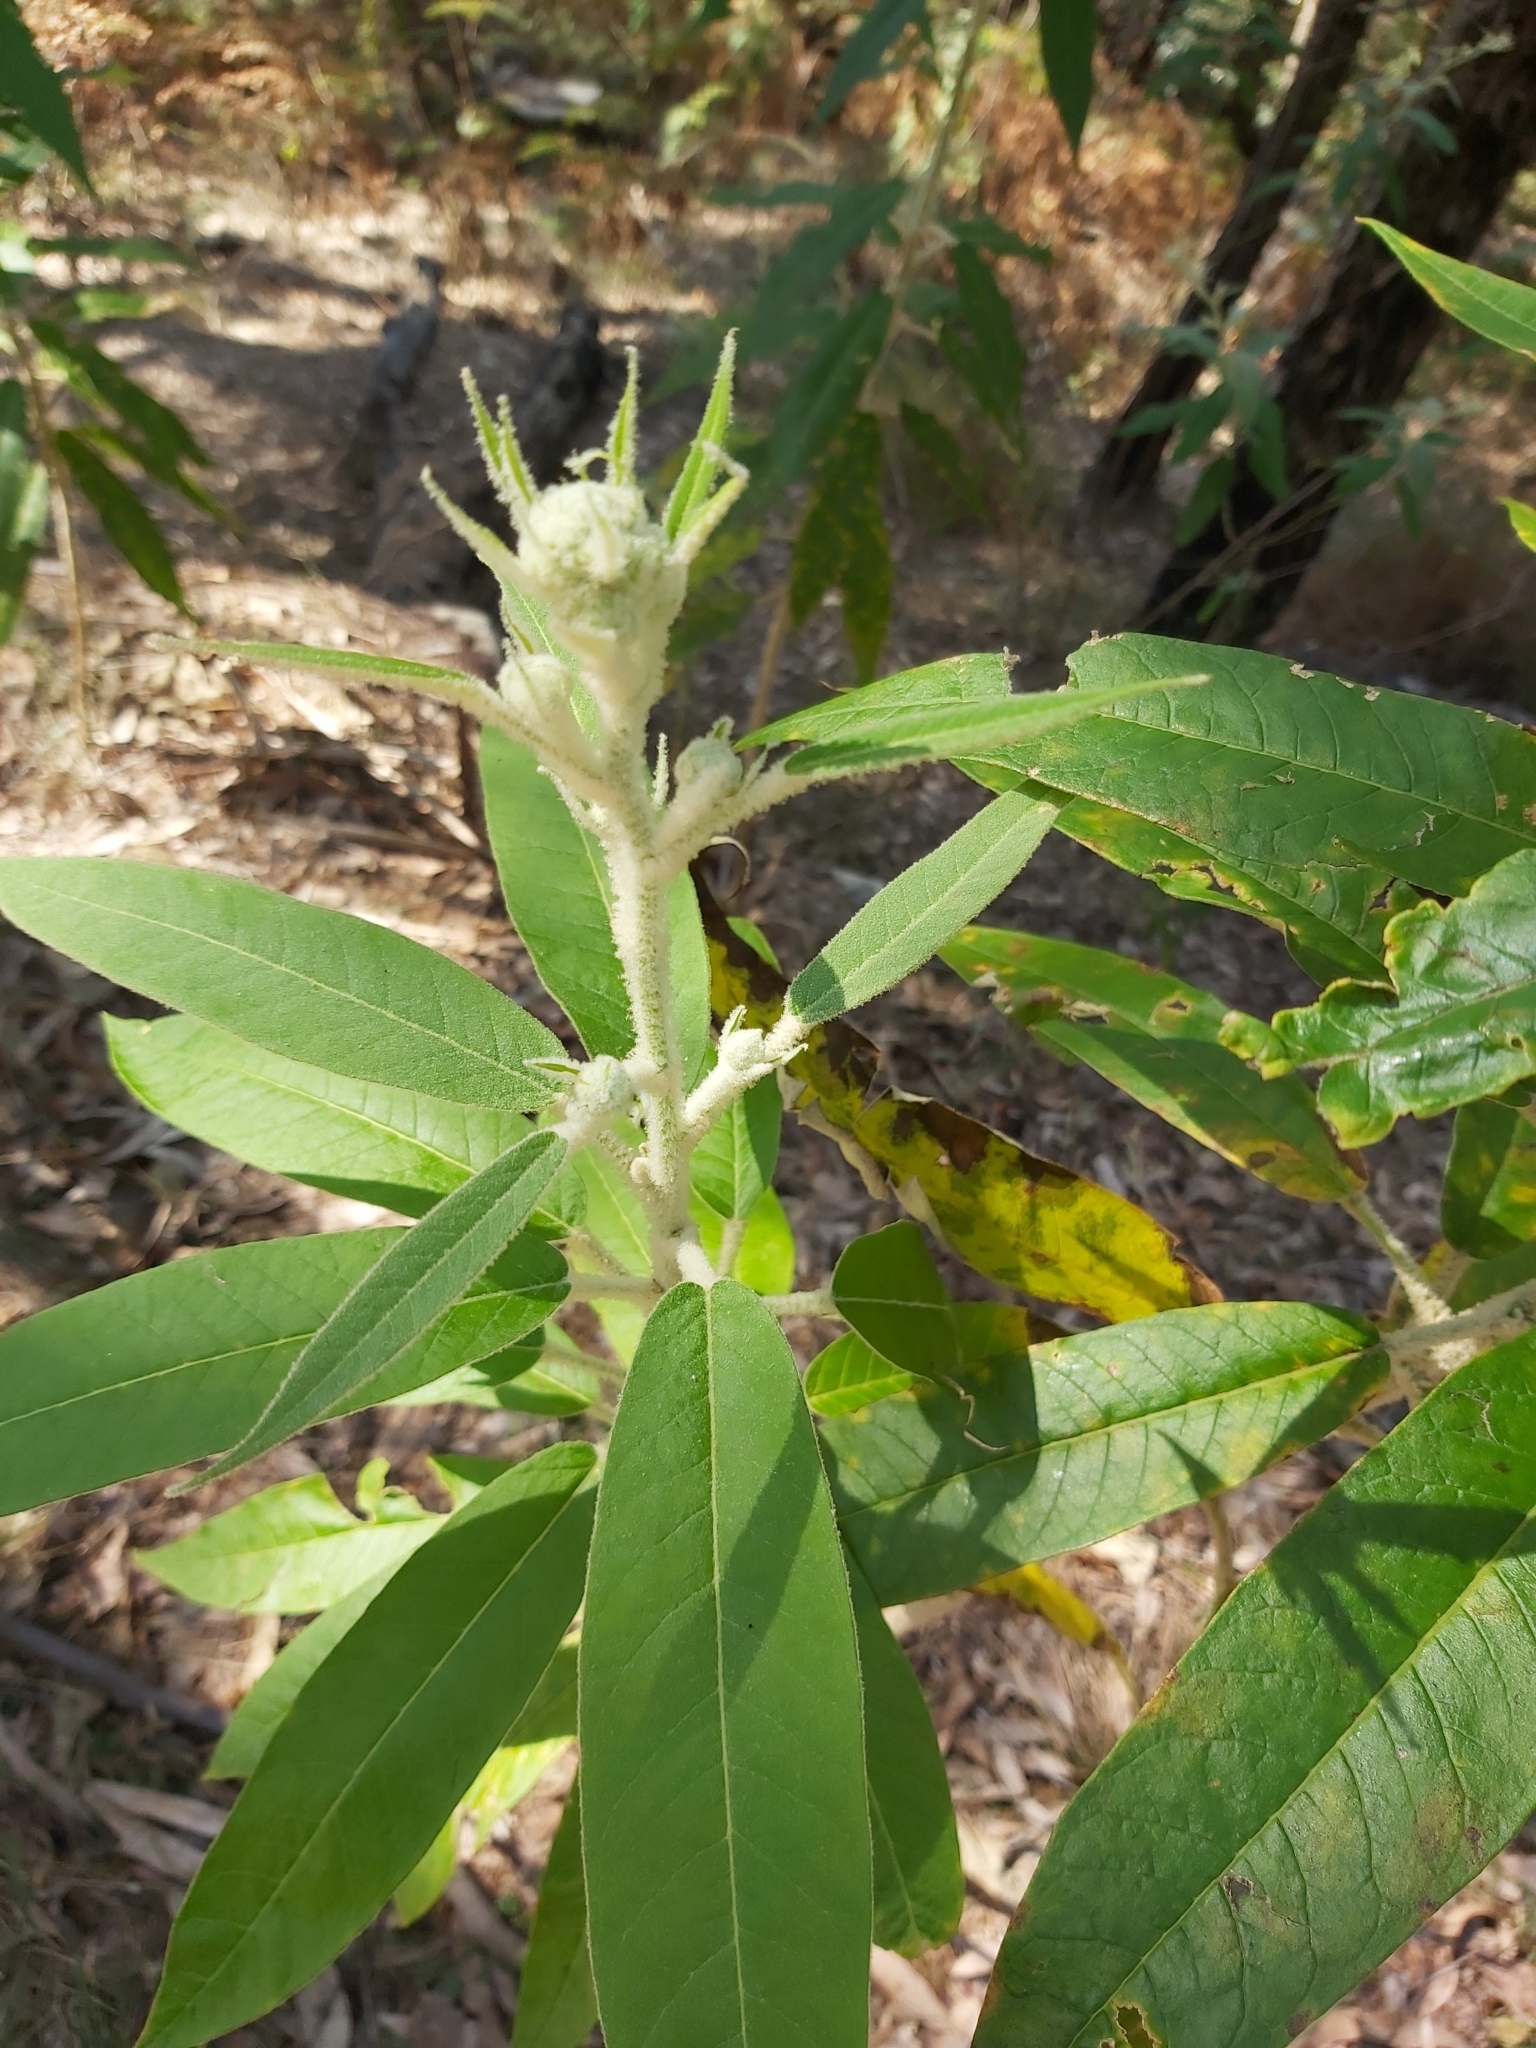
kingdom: Plantae
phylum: Tracheophyta
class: Magnoliopsida
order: Apiales
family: Araliaceae
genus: Astrotricha
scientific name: Astrotricha floccosa
